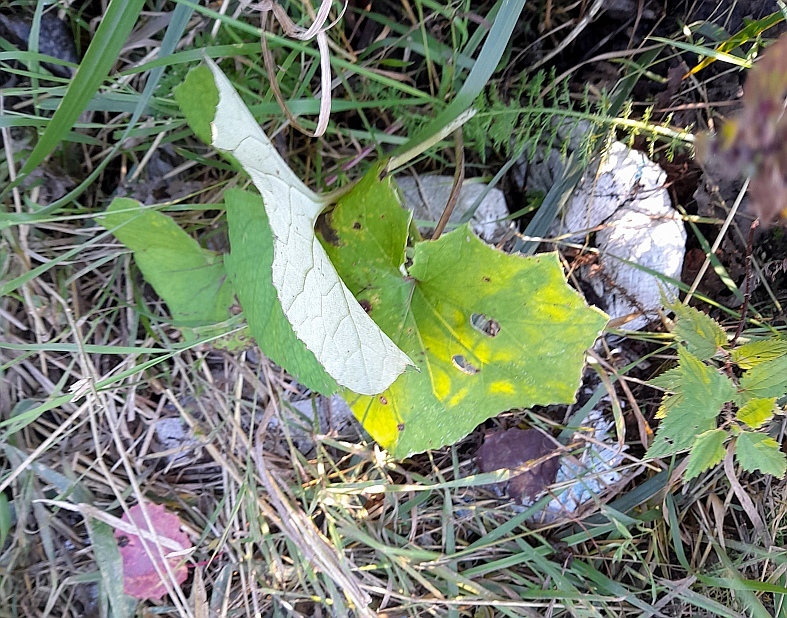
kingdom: Plantae
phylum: Tracheophyta
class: Magnoliopsida
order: Asterales
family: Asteraceae
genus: Tussilago
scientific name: Tussilago farfara
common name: Coltsfoot
